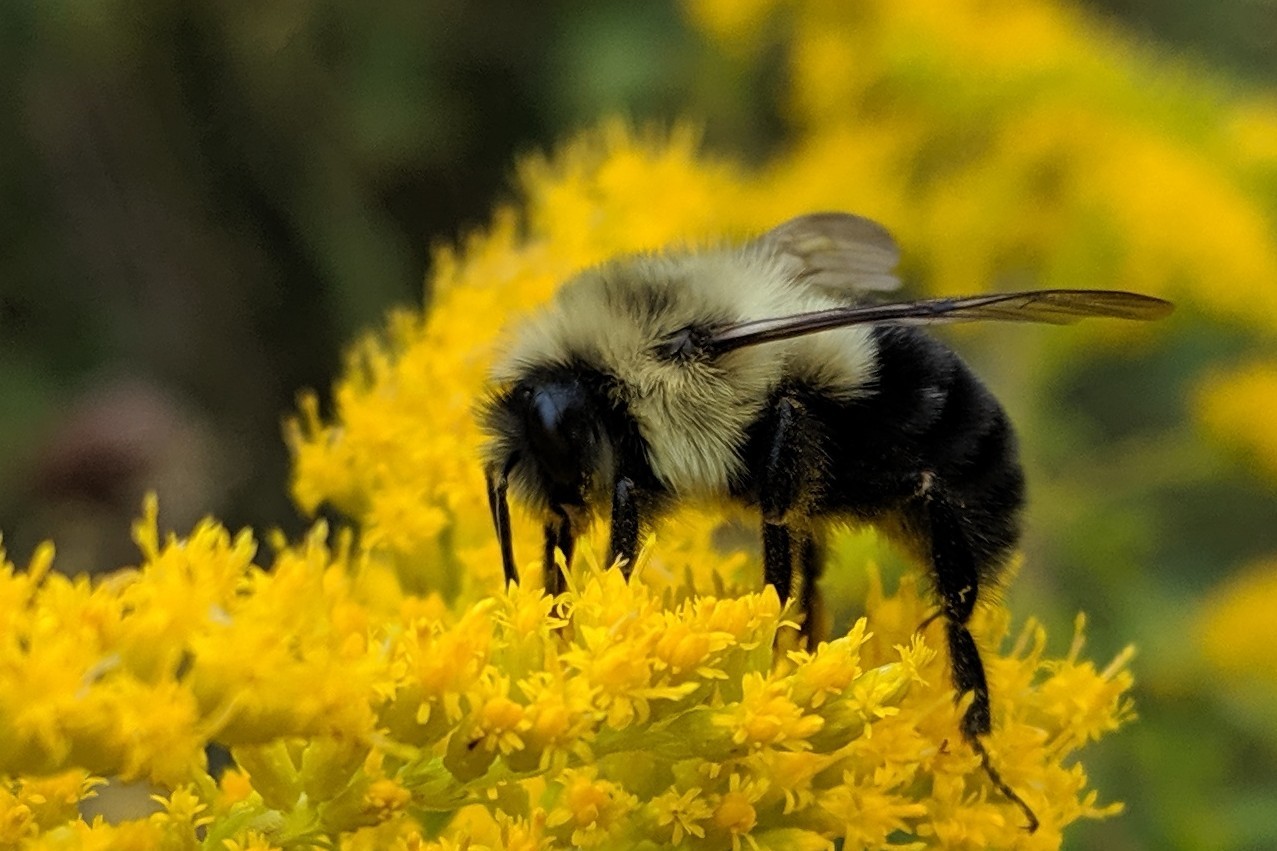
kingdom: Animalia
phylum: Arthropoda
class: Insecta
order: Hymenoptera
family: Apidae
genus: Bombus
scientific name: Bombus impatiens
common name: Common eastern bumble bee
